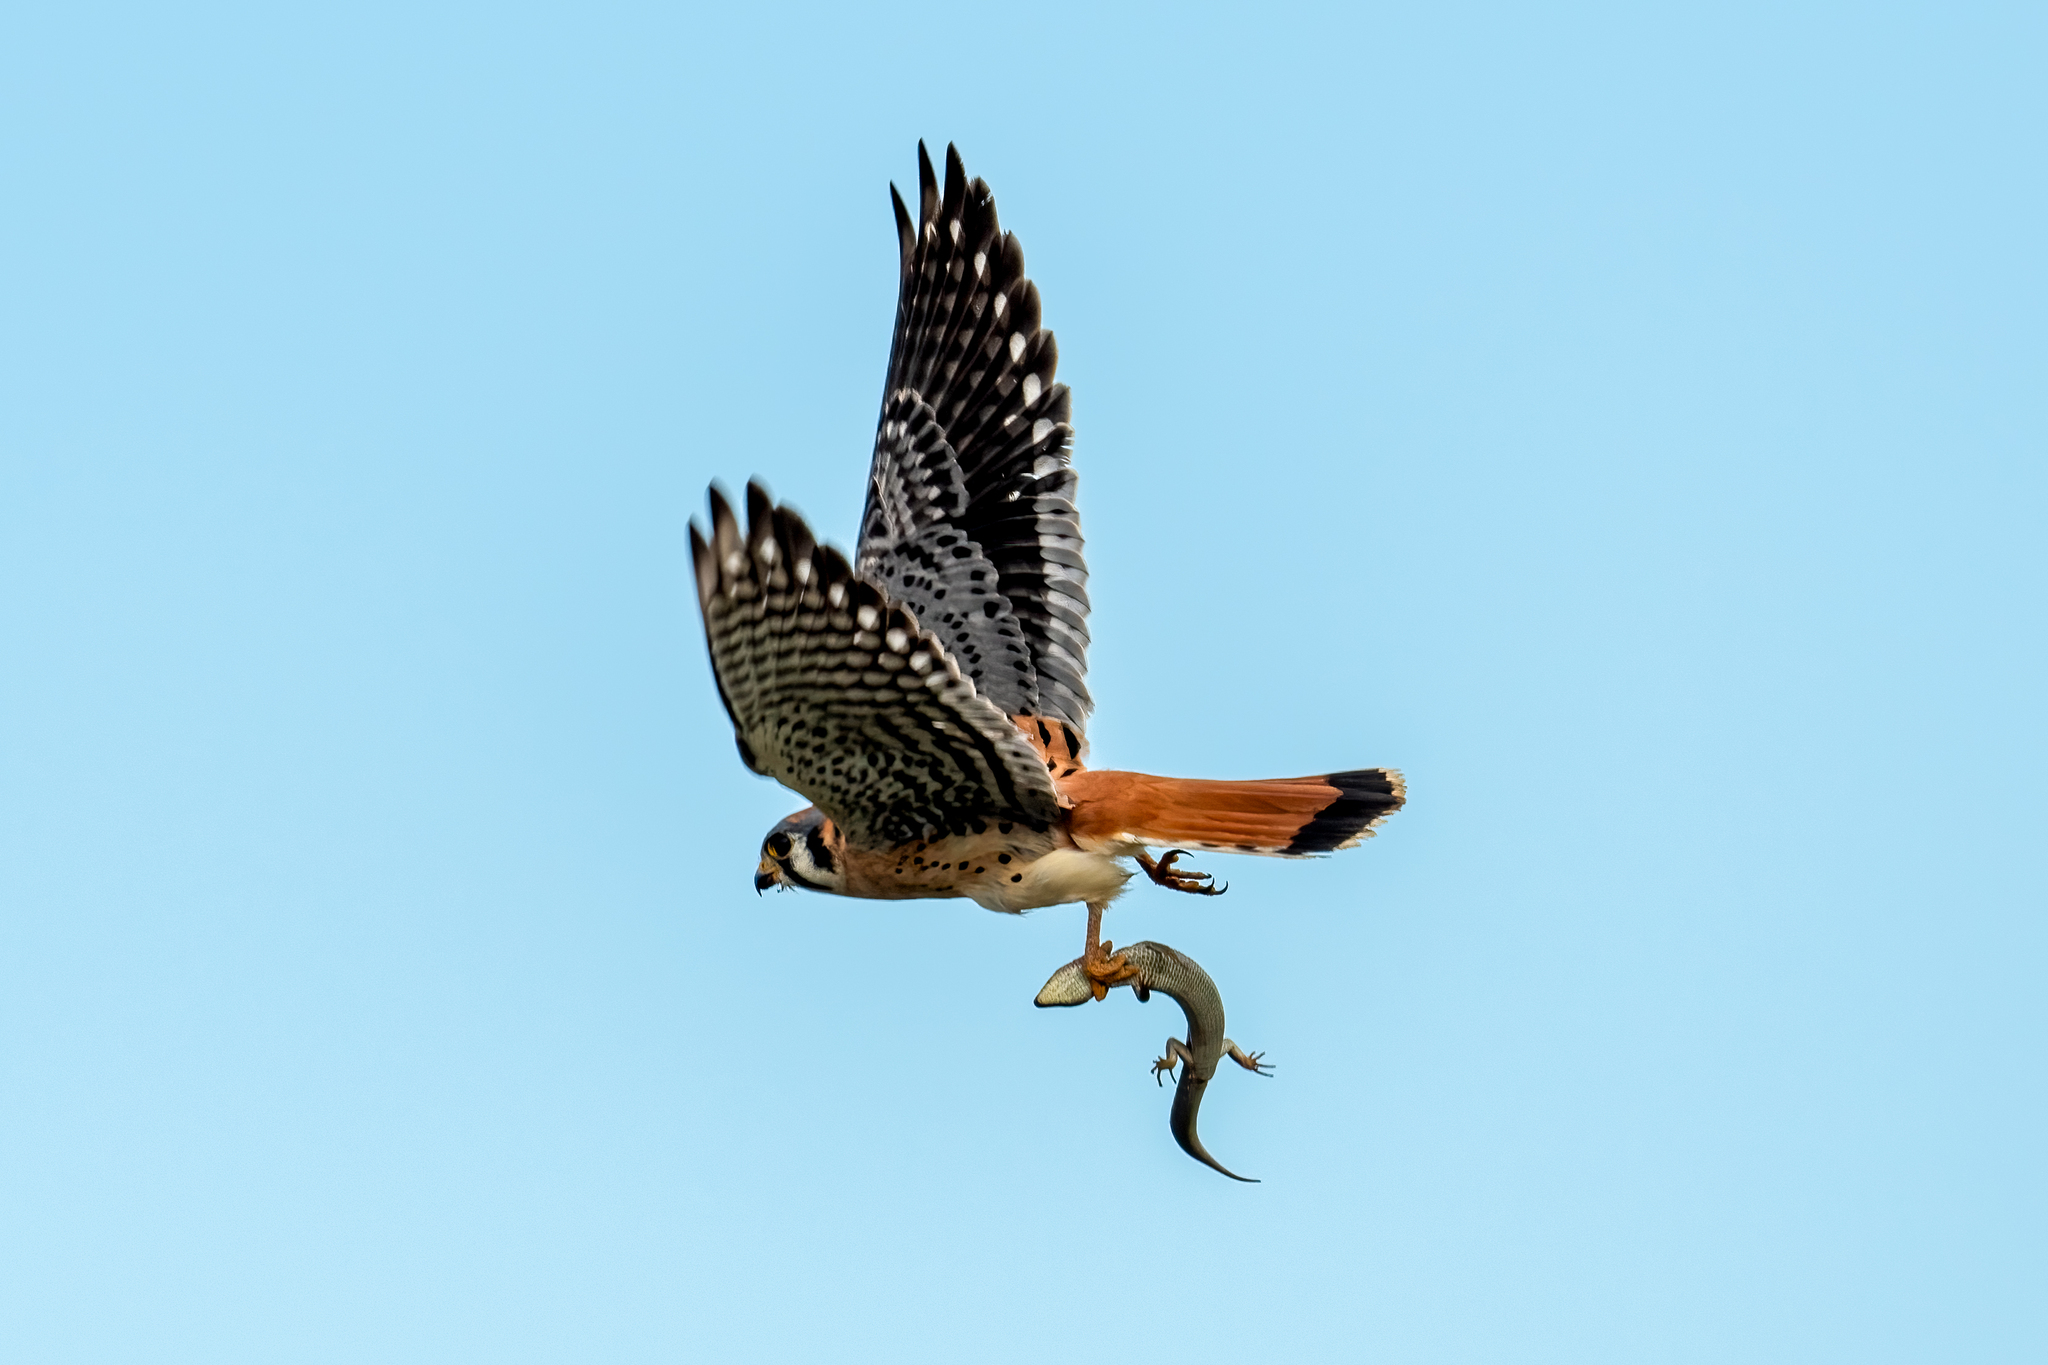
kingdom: Animalia
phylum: Chordata
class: Aves
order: Falconiformes
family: Falconidae
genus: Falco
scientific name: Falco sparverius
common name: American kestrel
